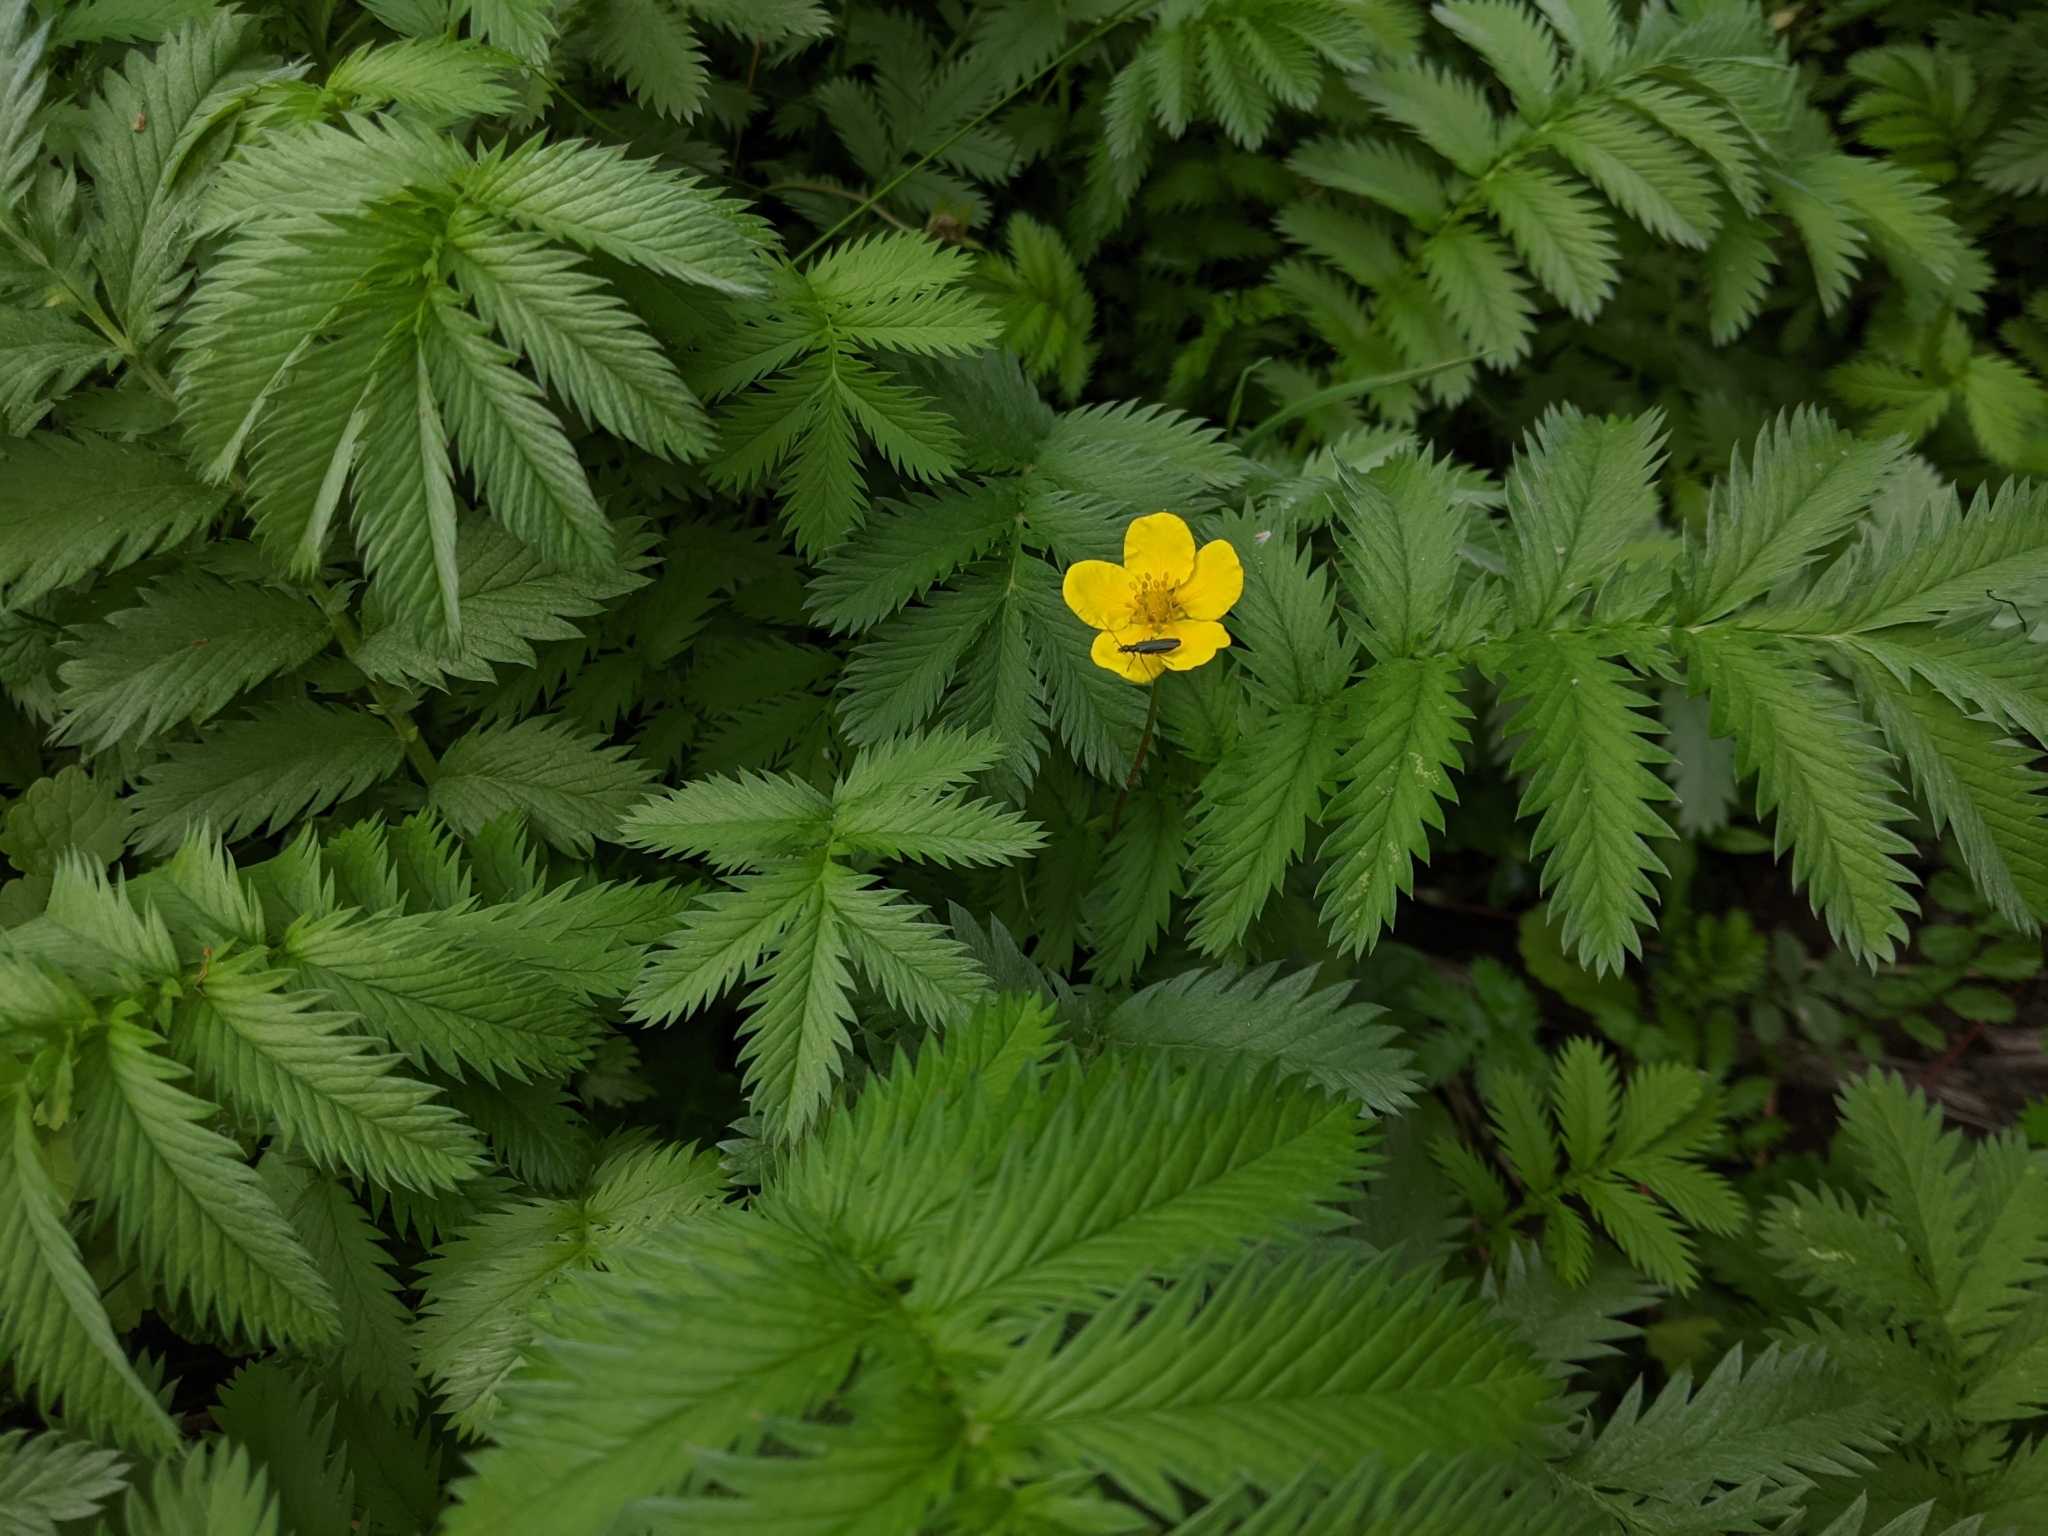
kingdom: Plantae
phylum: Tracheophyta
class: Magnoliopsida
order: Rosales
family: Rosaceae
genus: Argentina
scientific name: Argentina anserina
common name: Common silverweed
